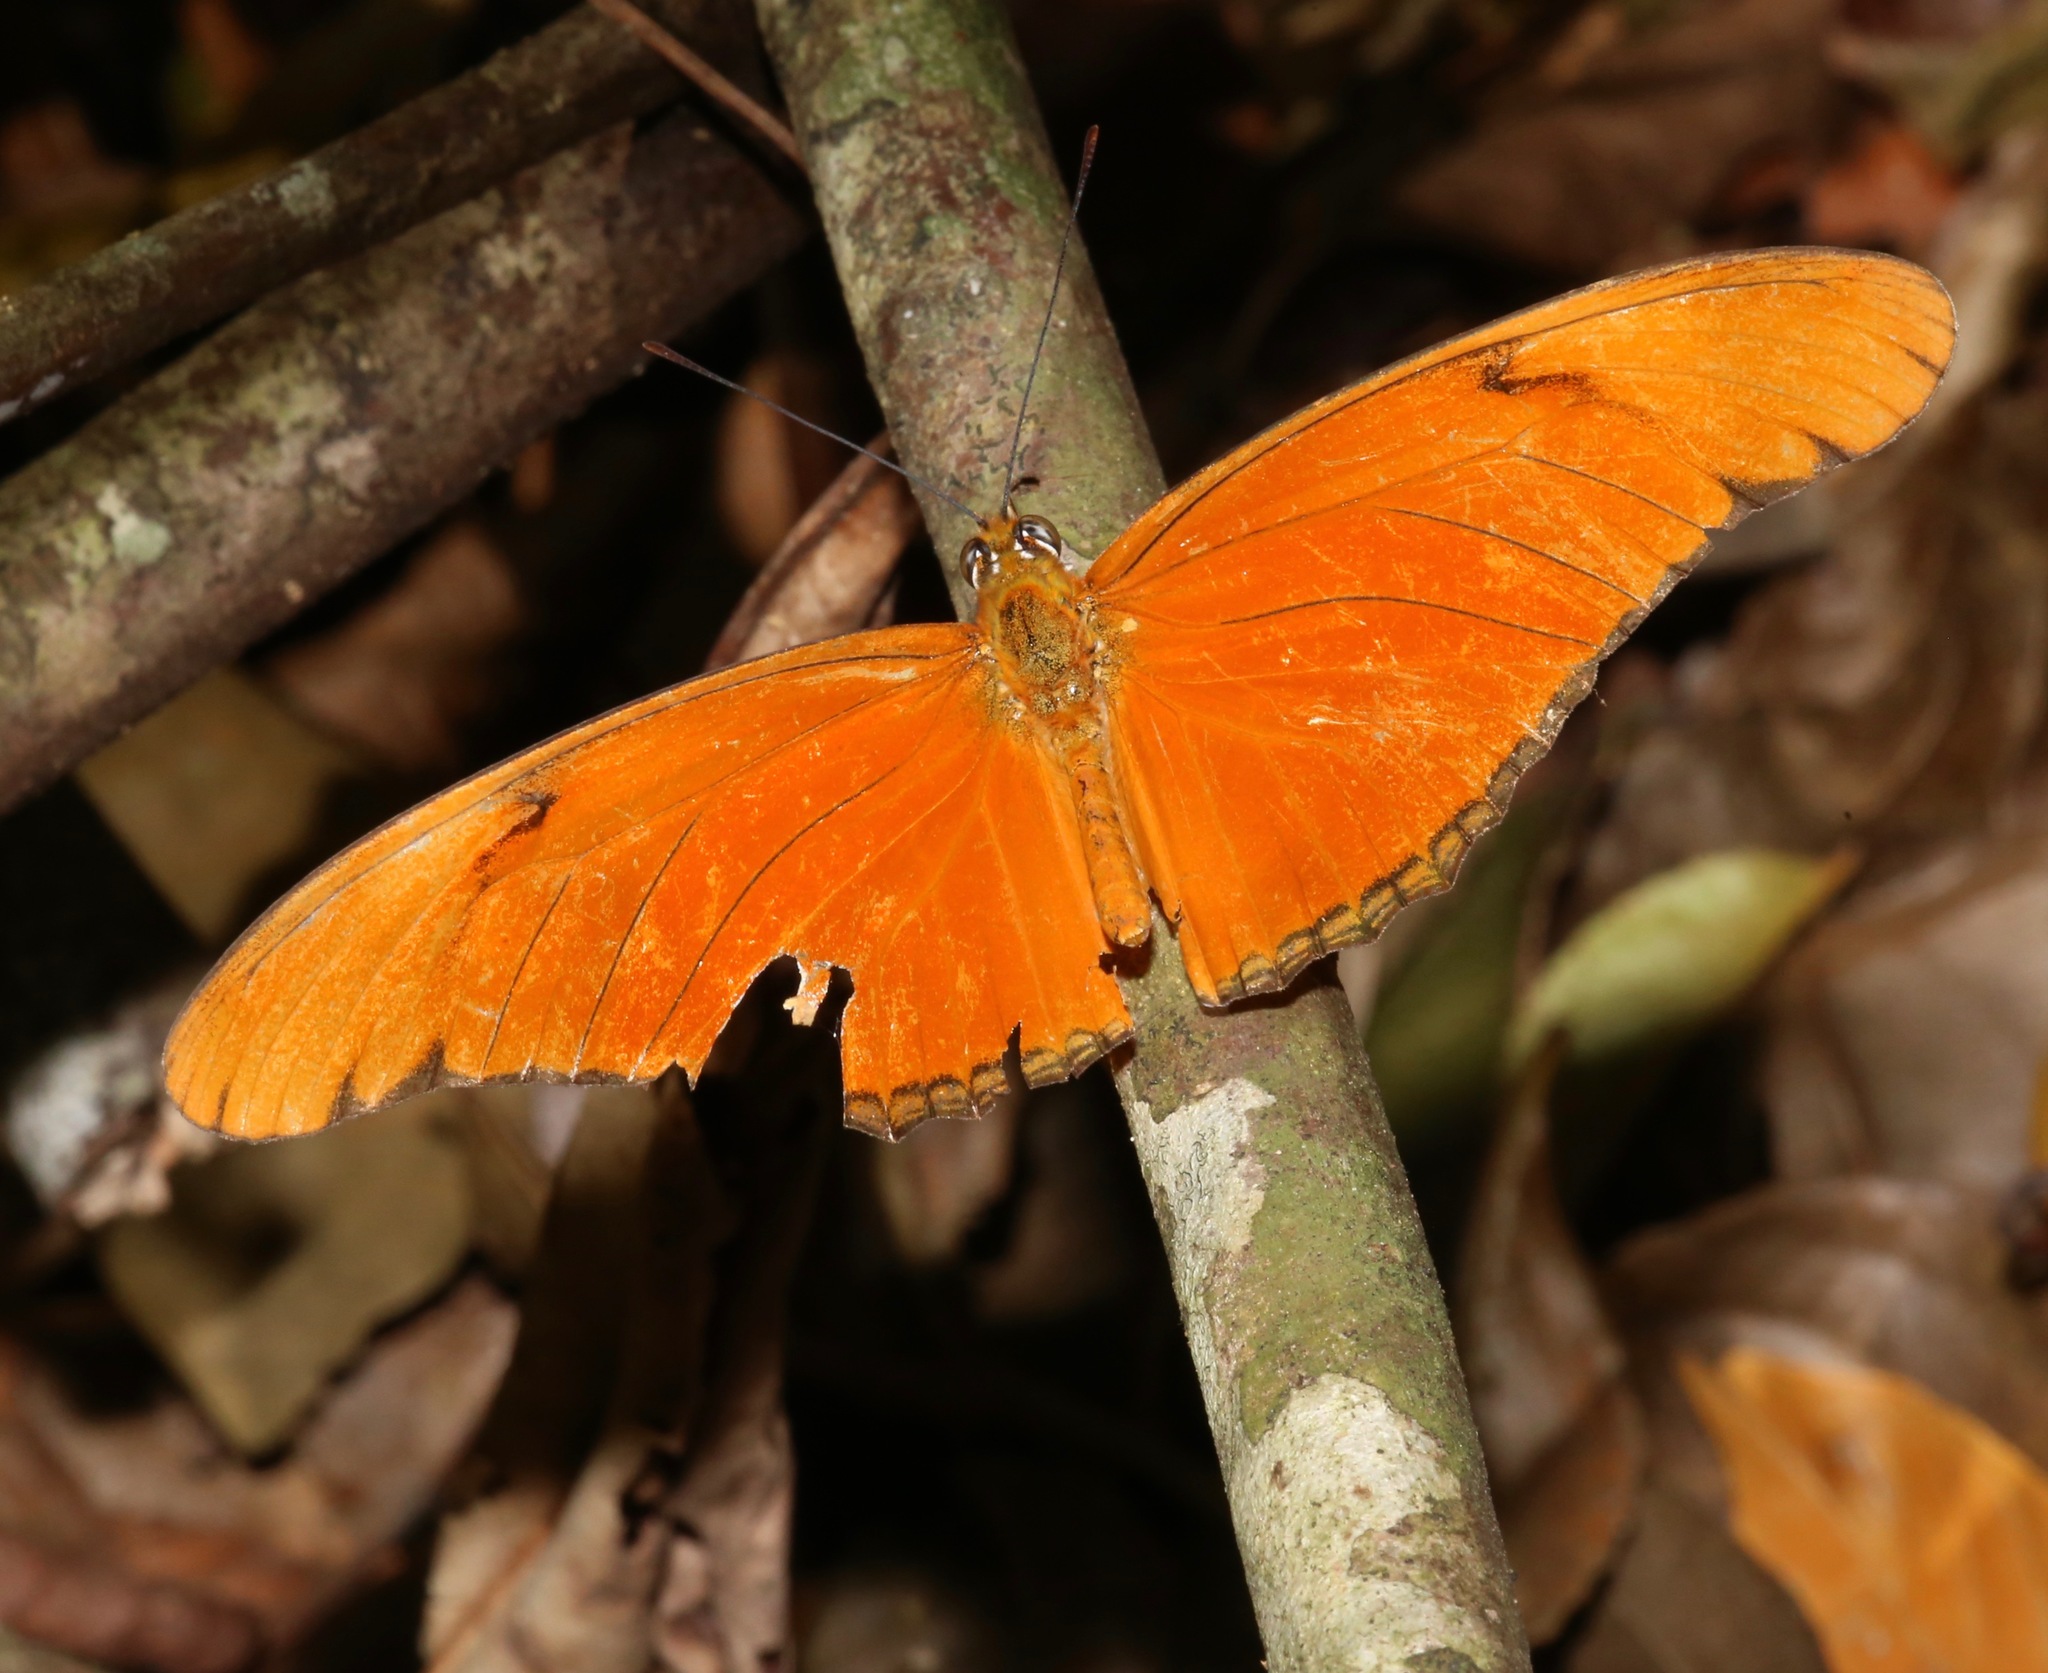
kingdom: Animalia
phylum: Arthropoda
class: Insecta
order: Lepidoptera
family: Nymphalidae
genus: Dryas
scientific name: Dryas iulia
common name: Flambeau
